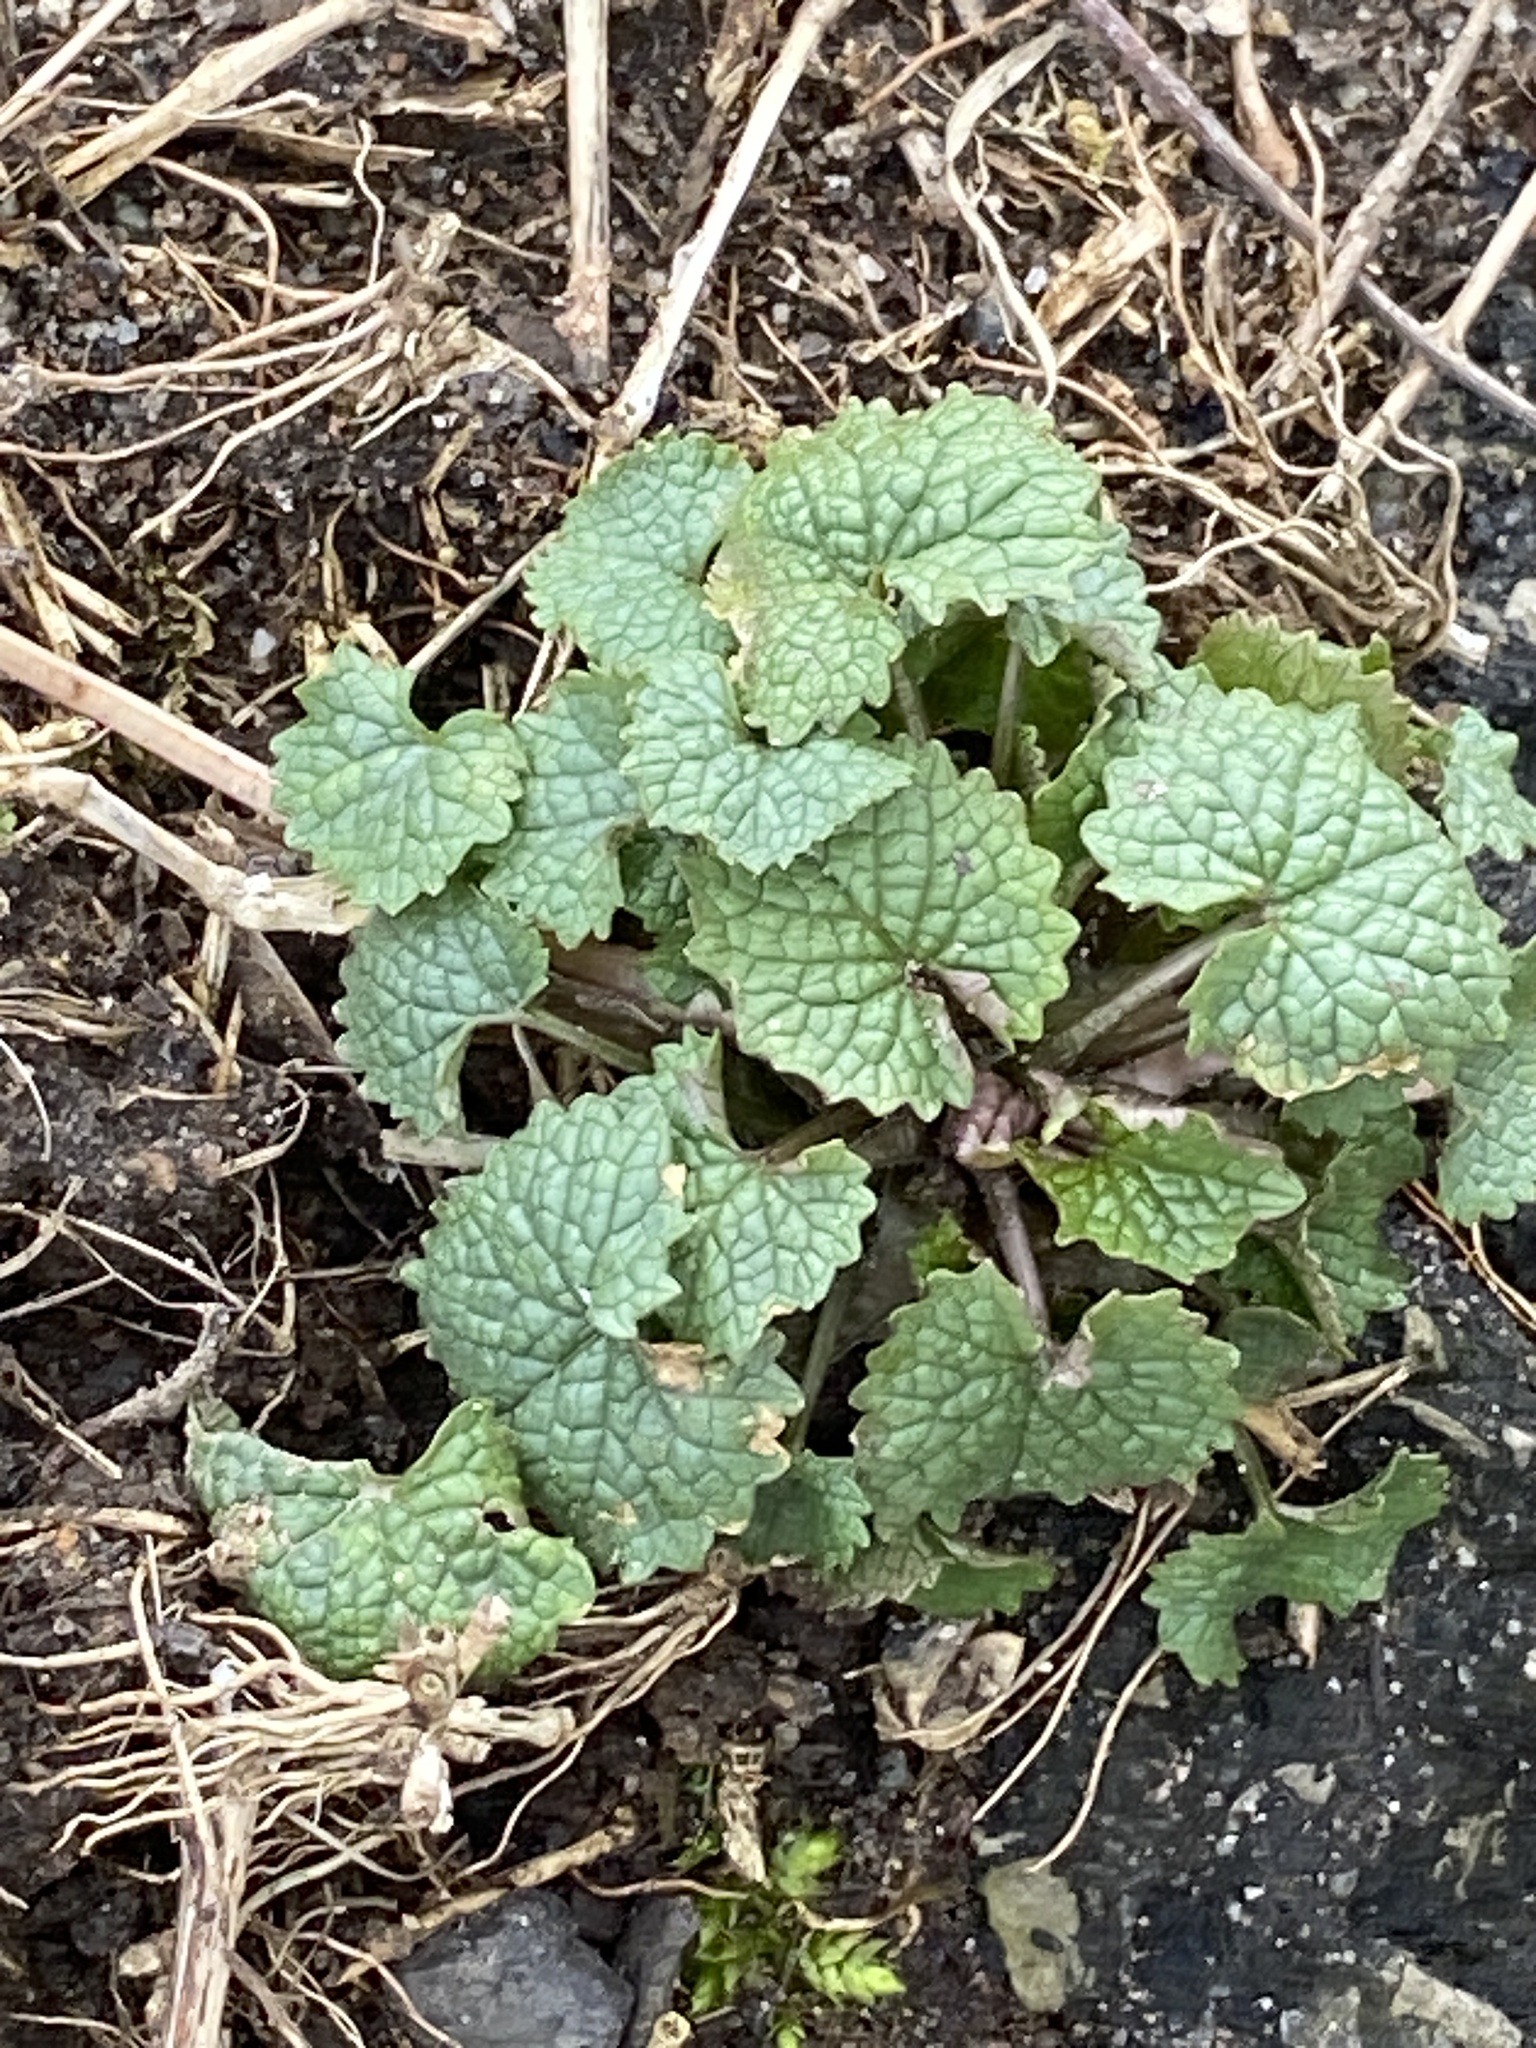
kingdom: Plantae
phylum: Tracheophyta
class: Magnoliopsida
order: Brassicales
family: Brassicaceae
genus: Alliaria
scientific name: Alliaria petiolata
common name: Garlic mustard
